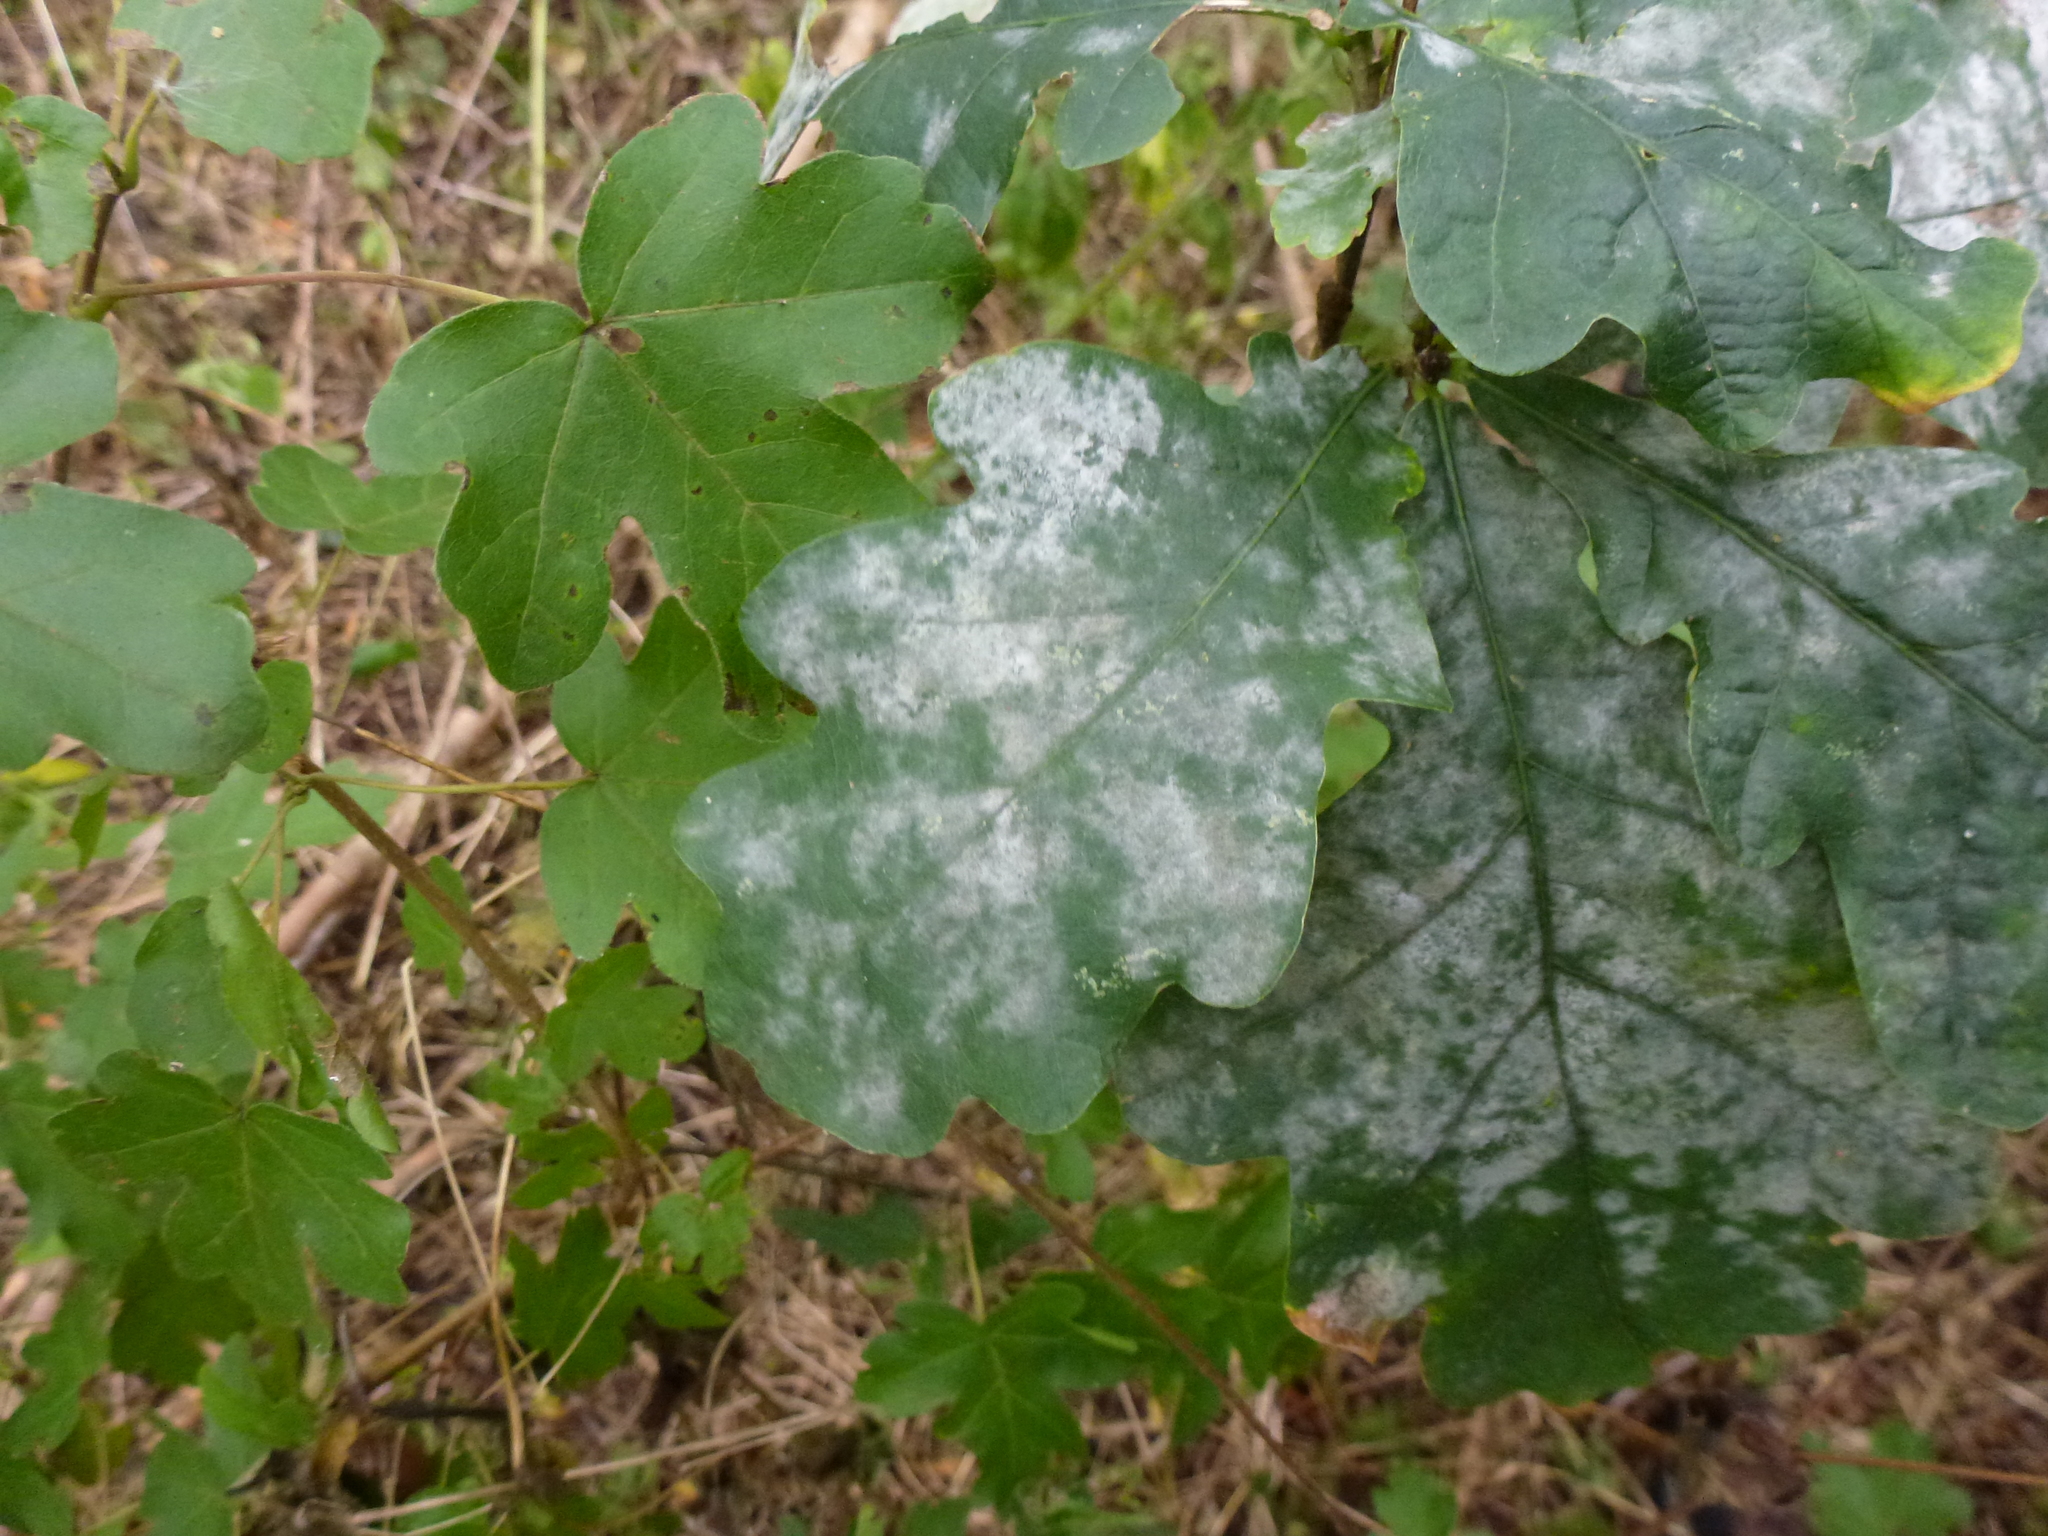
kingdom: Fungi
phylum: Ascomycota
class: Leotiomycetes
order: Helotiales
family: Erysiphaceae
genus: Erysiphe
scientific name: Erysiphe alphitoides
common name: Oak mildew
